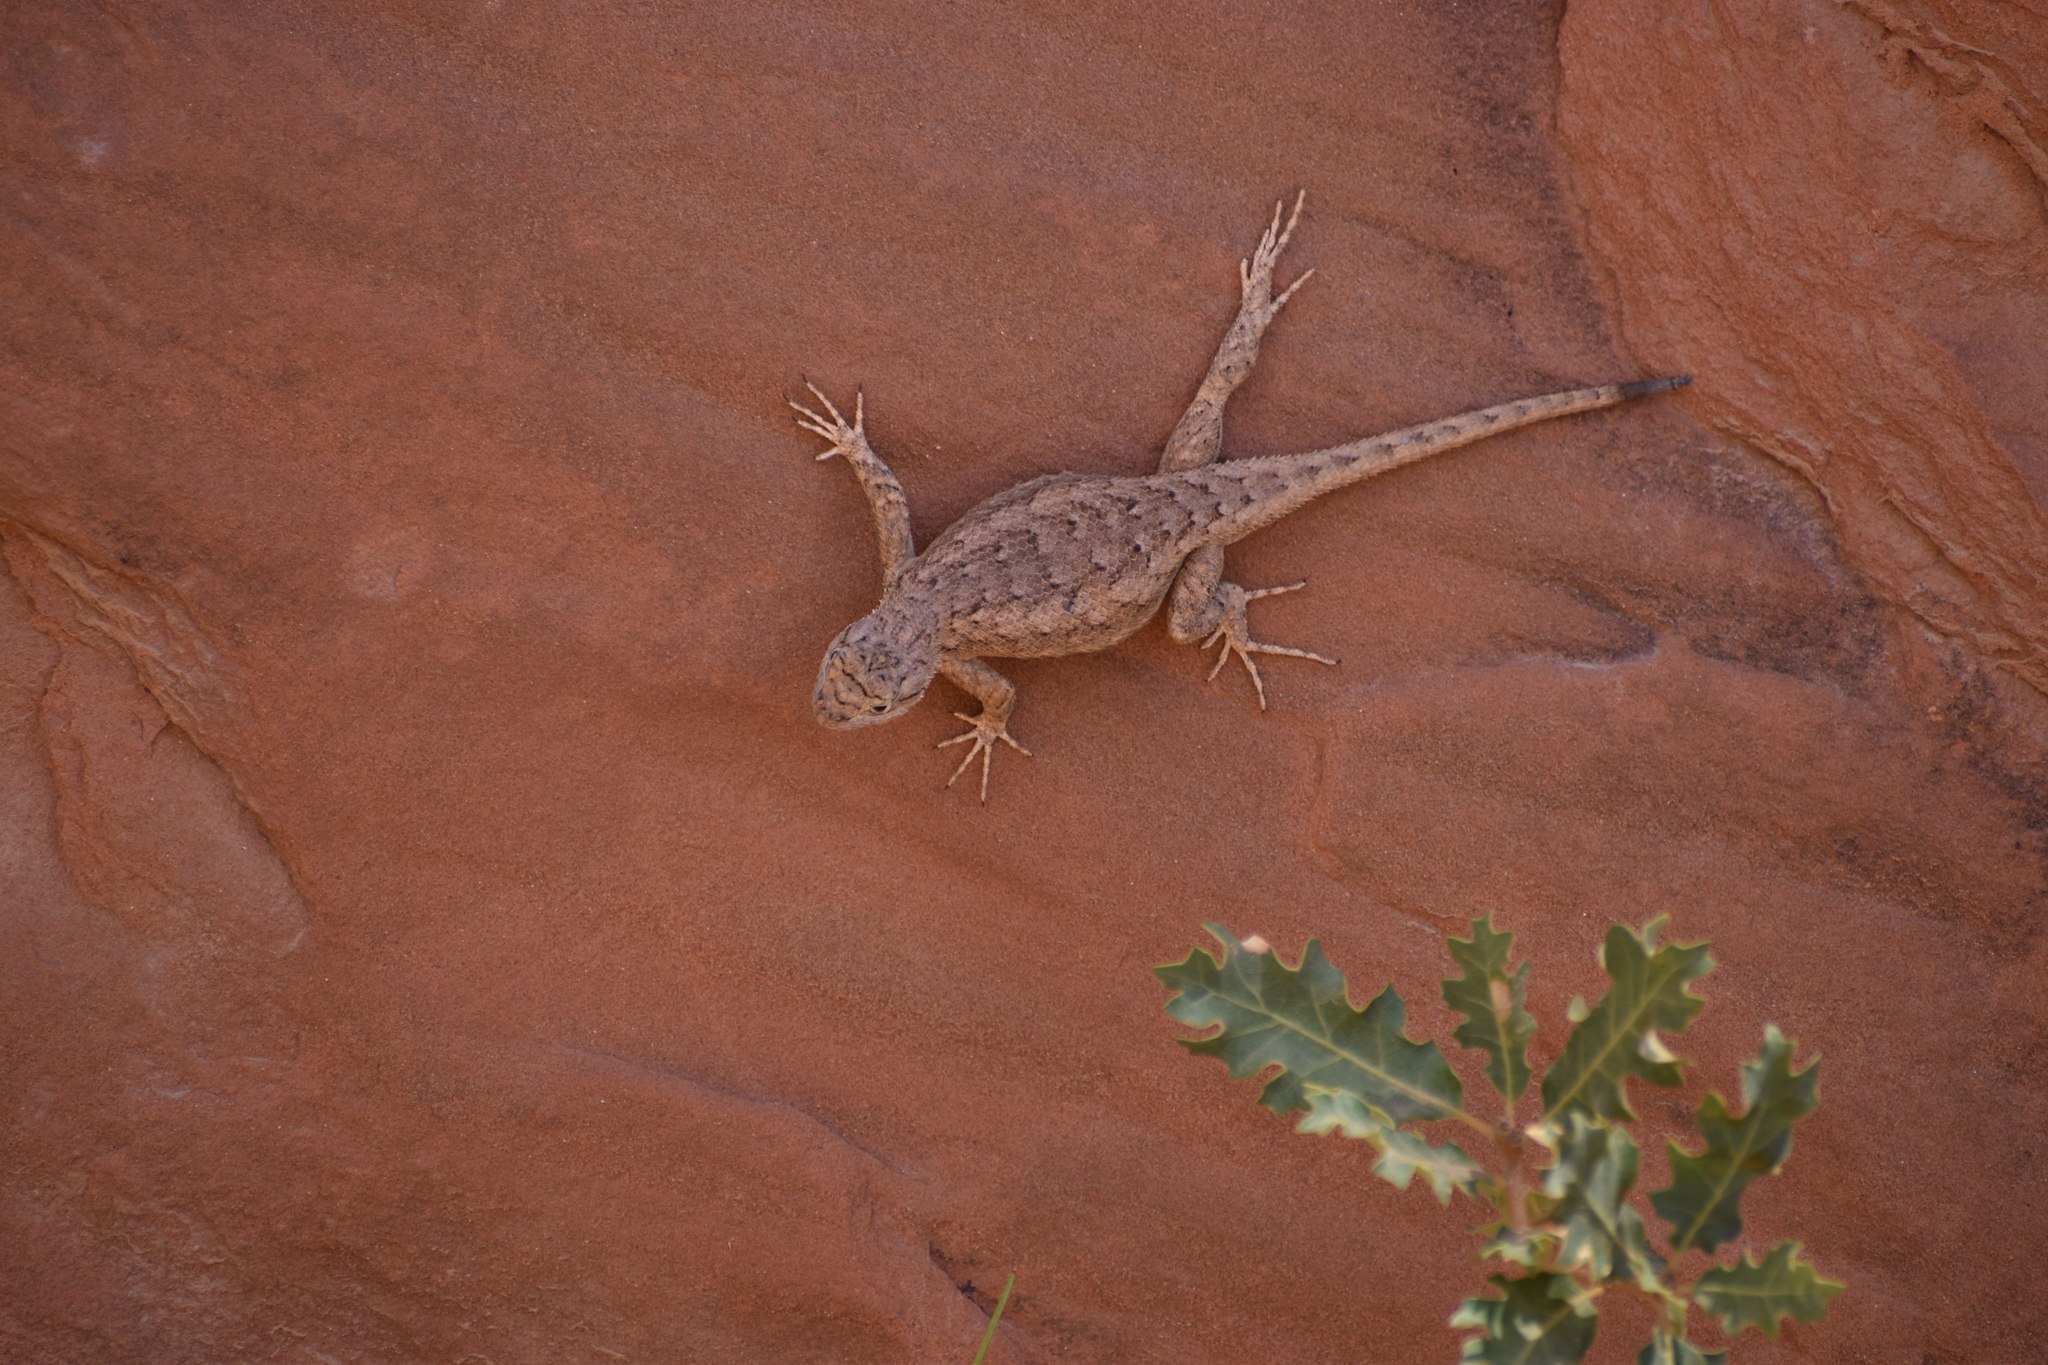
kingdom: Animalia
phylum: Chordata
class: Squamata
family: Phrynosomatidae
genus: Sceloporus
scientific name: Sceloporus tristichus
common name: Plateau fence lizard
